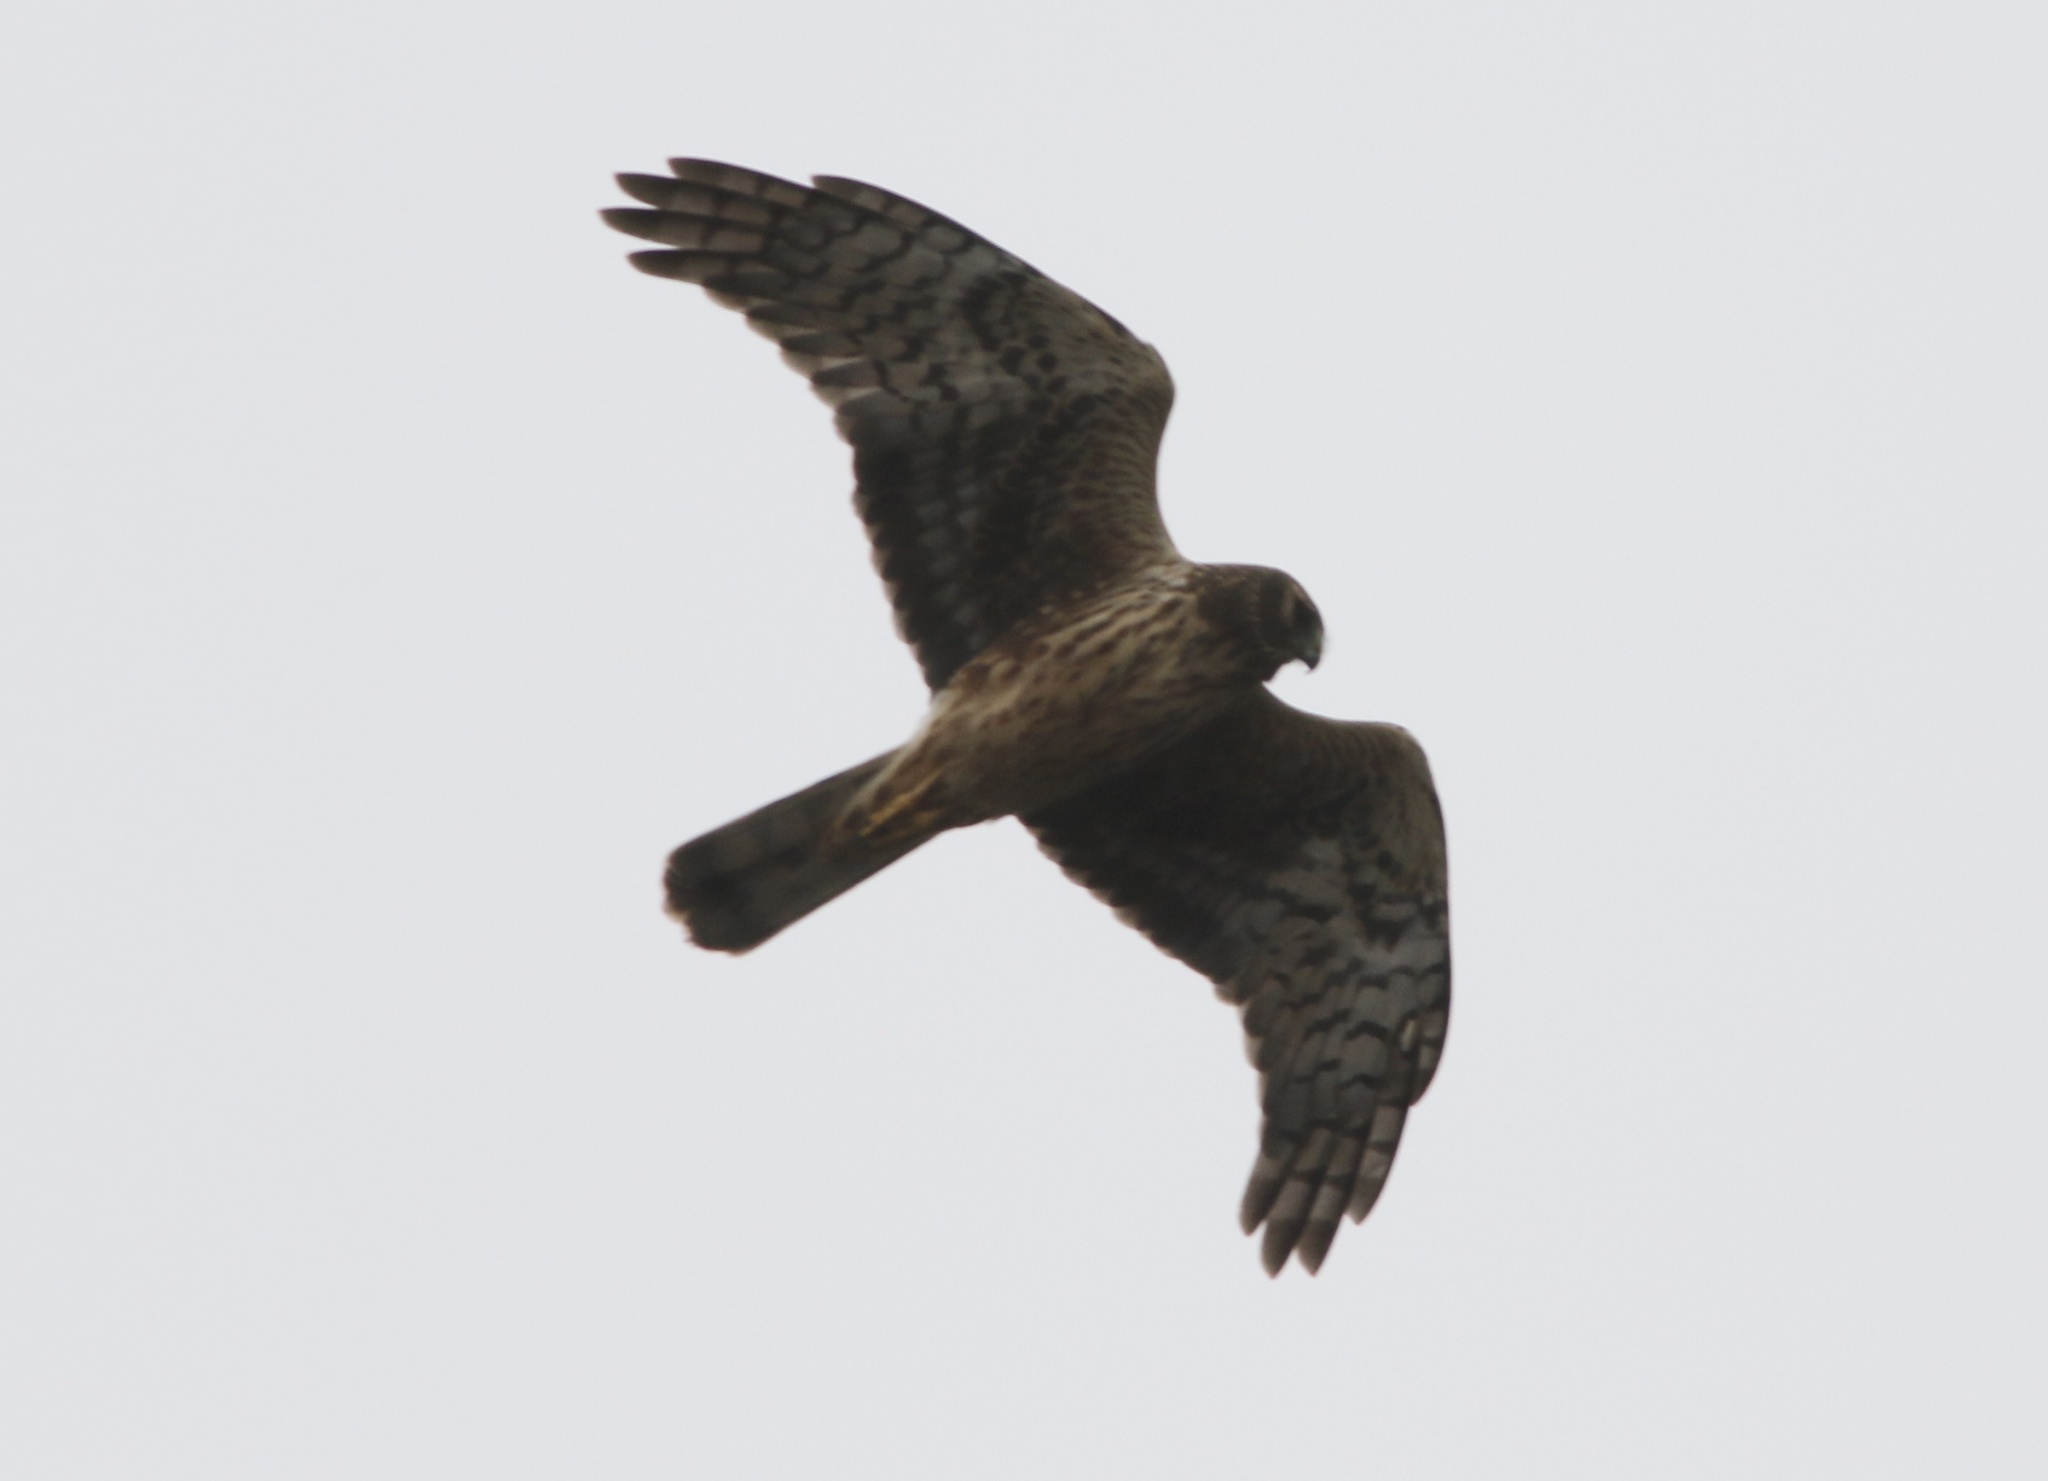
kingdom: Animalia
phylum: Chordata
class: Aves
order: Accipitriformes
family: Accipitridae
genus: Circus
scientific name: Circus cyaneus
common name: Hen harrier
